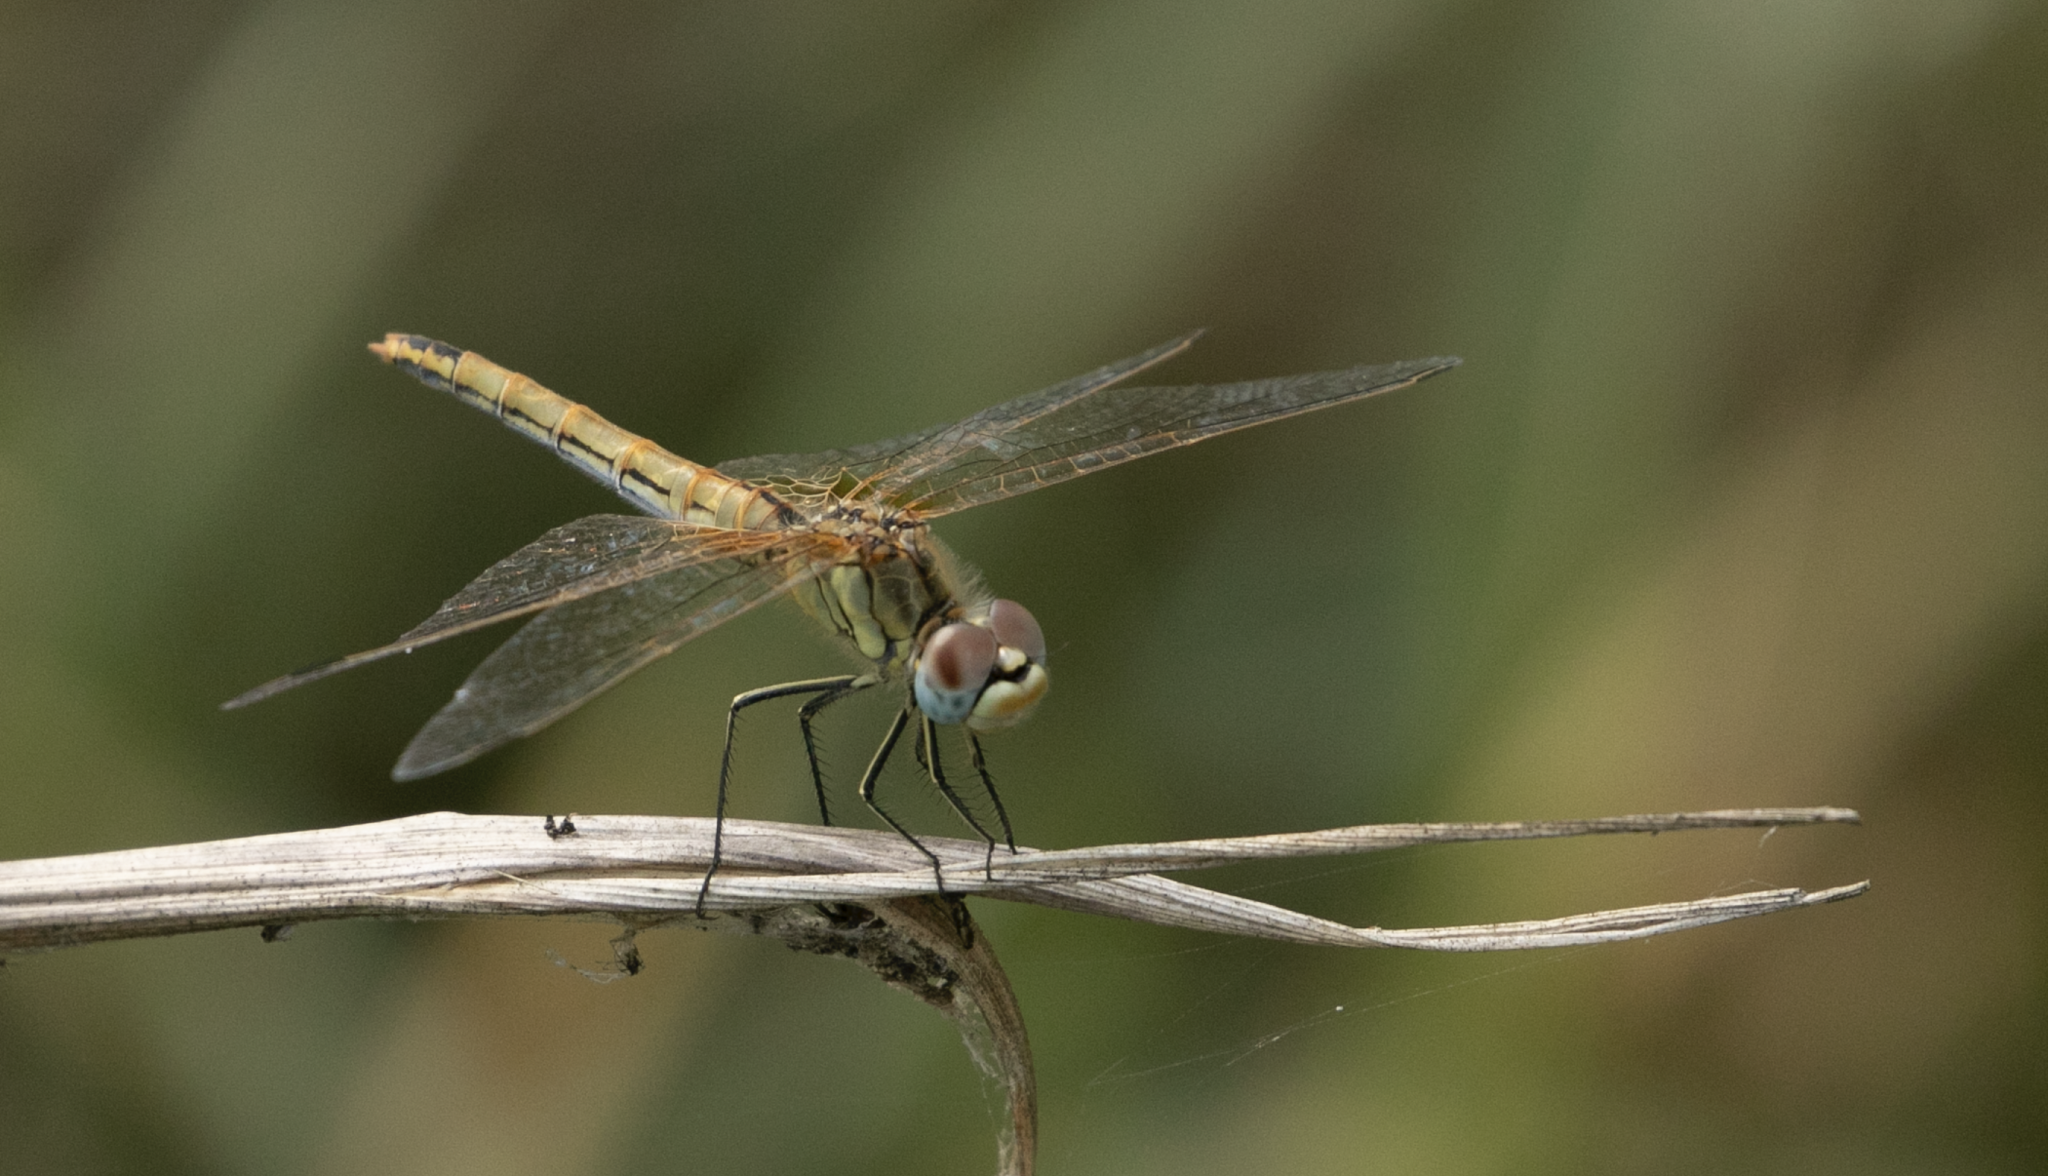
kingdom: Animalia
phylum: Arthropoda
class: Insecta
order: Odonata
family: Libellulidae
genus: Sympetrum
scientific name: Sympetrum fonscolombii
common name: Red-veined darter
